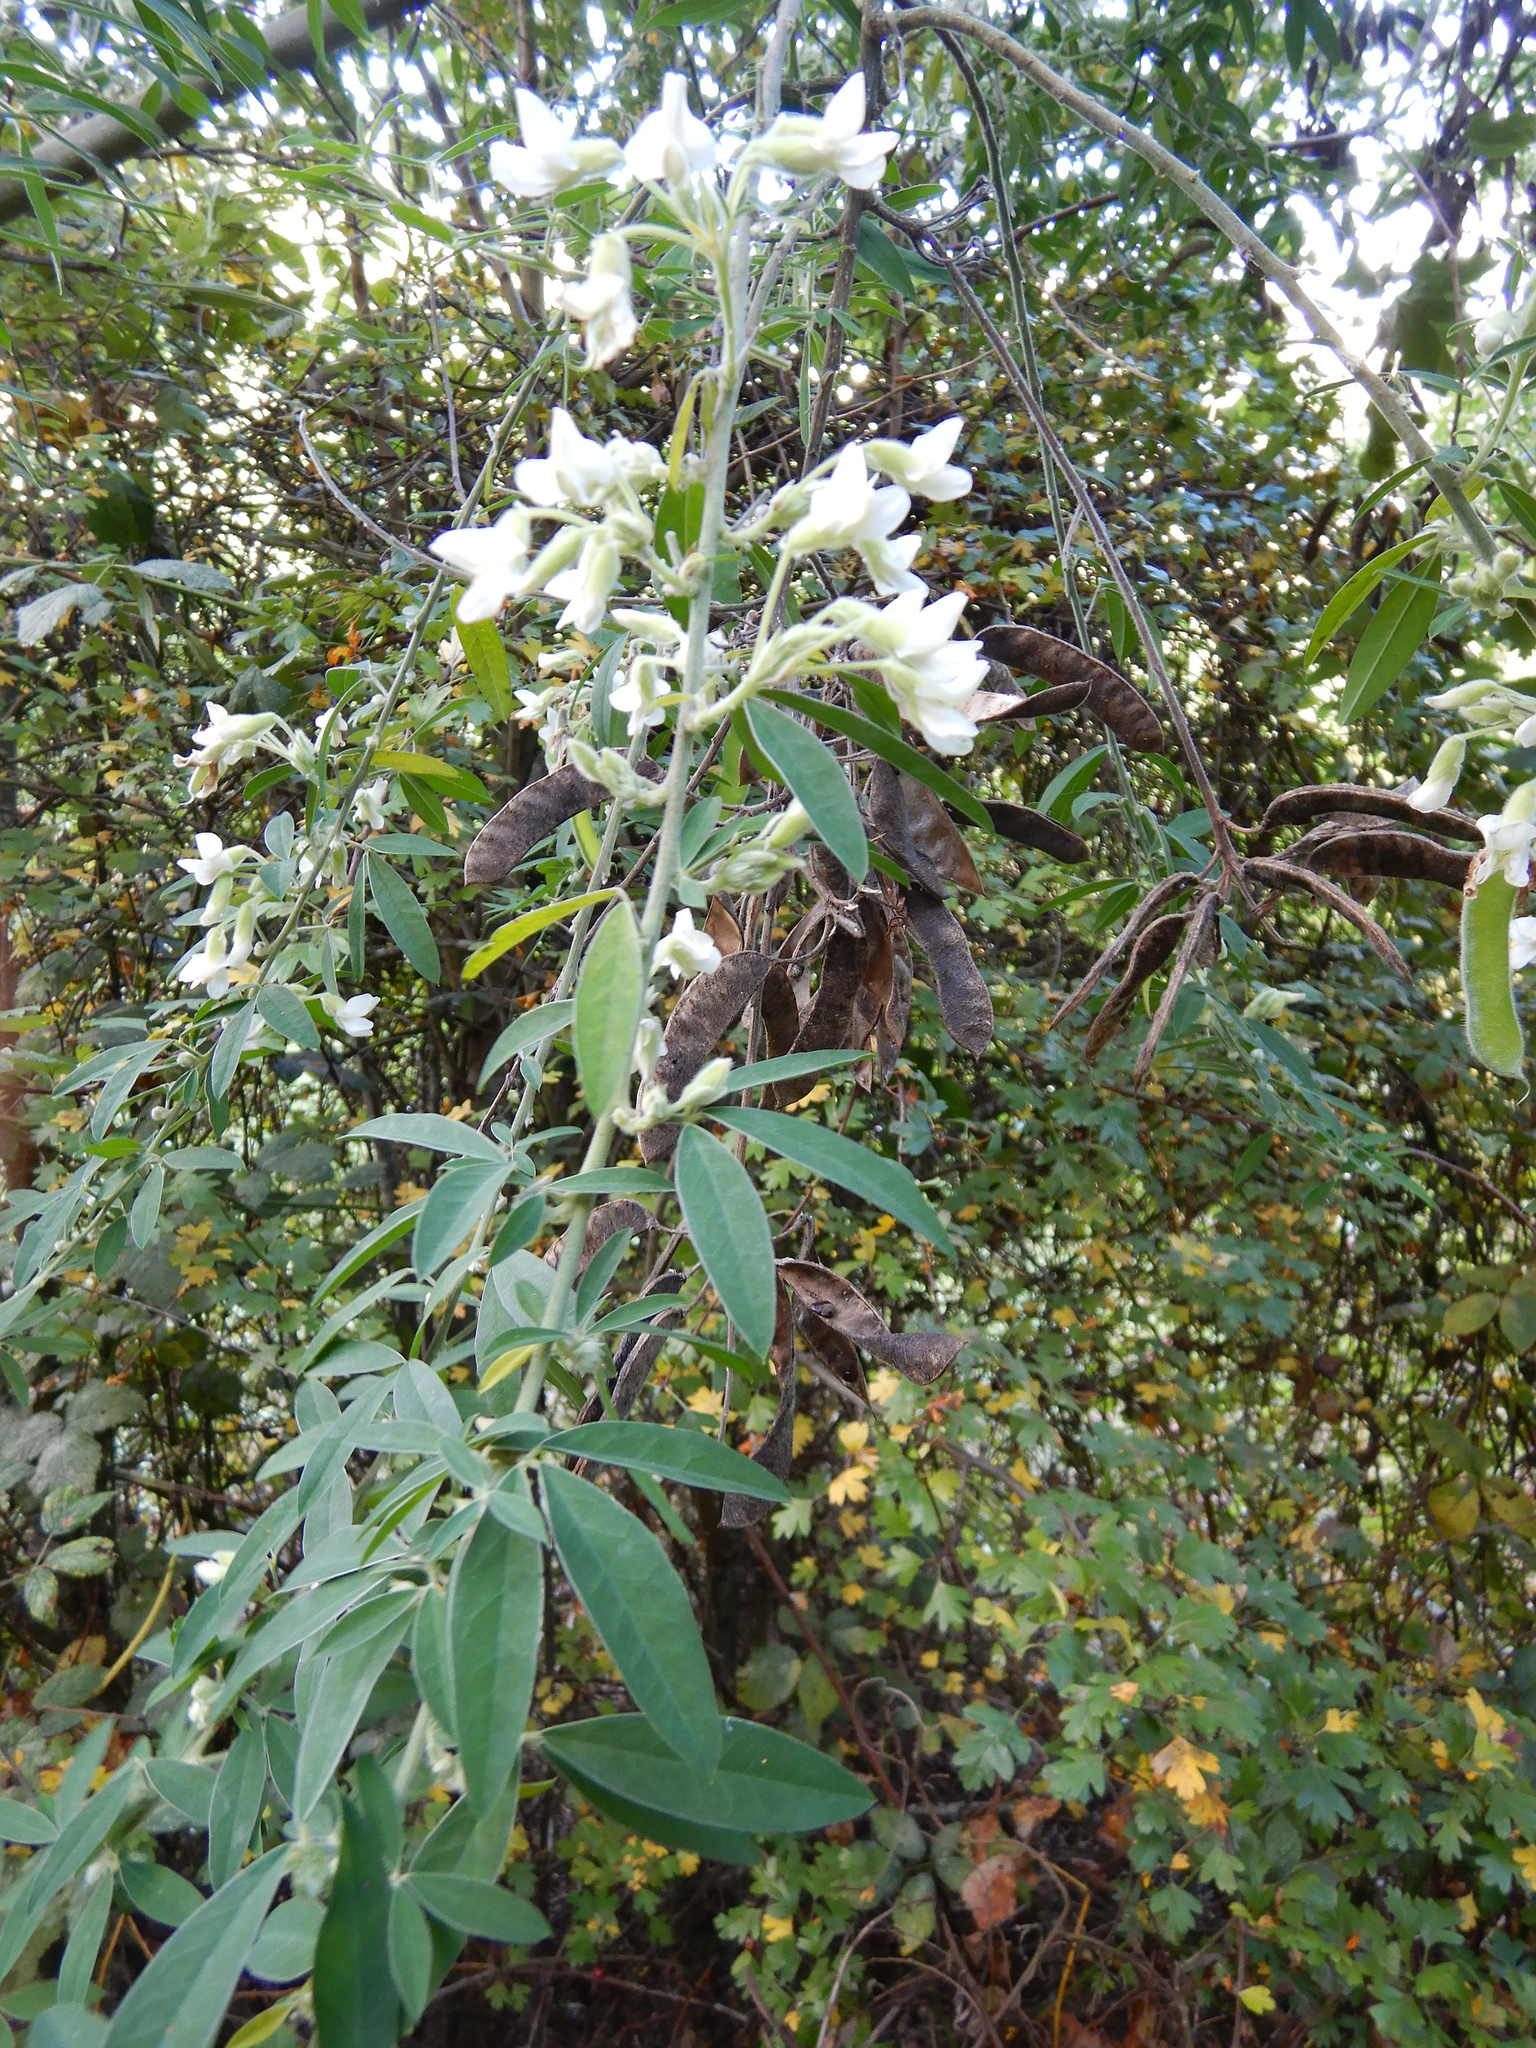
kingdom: Plantae
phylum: Tracheophyta
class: Magnoliopsida
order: Fabales
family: Fabaceae
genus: Chamaecytisus
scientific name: Chamaecytisus prolifer
